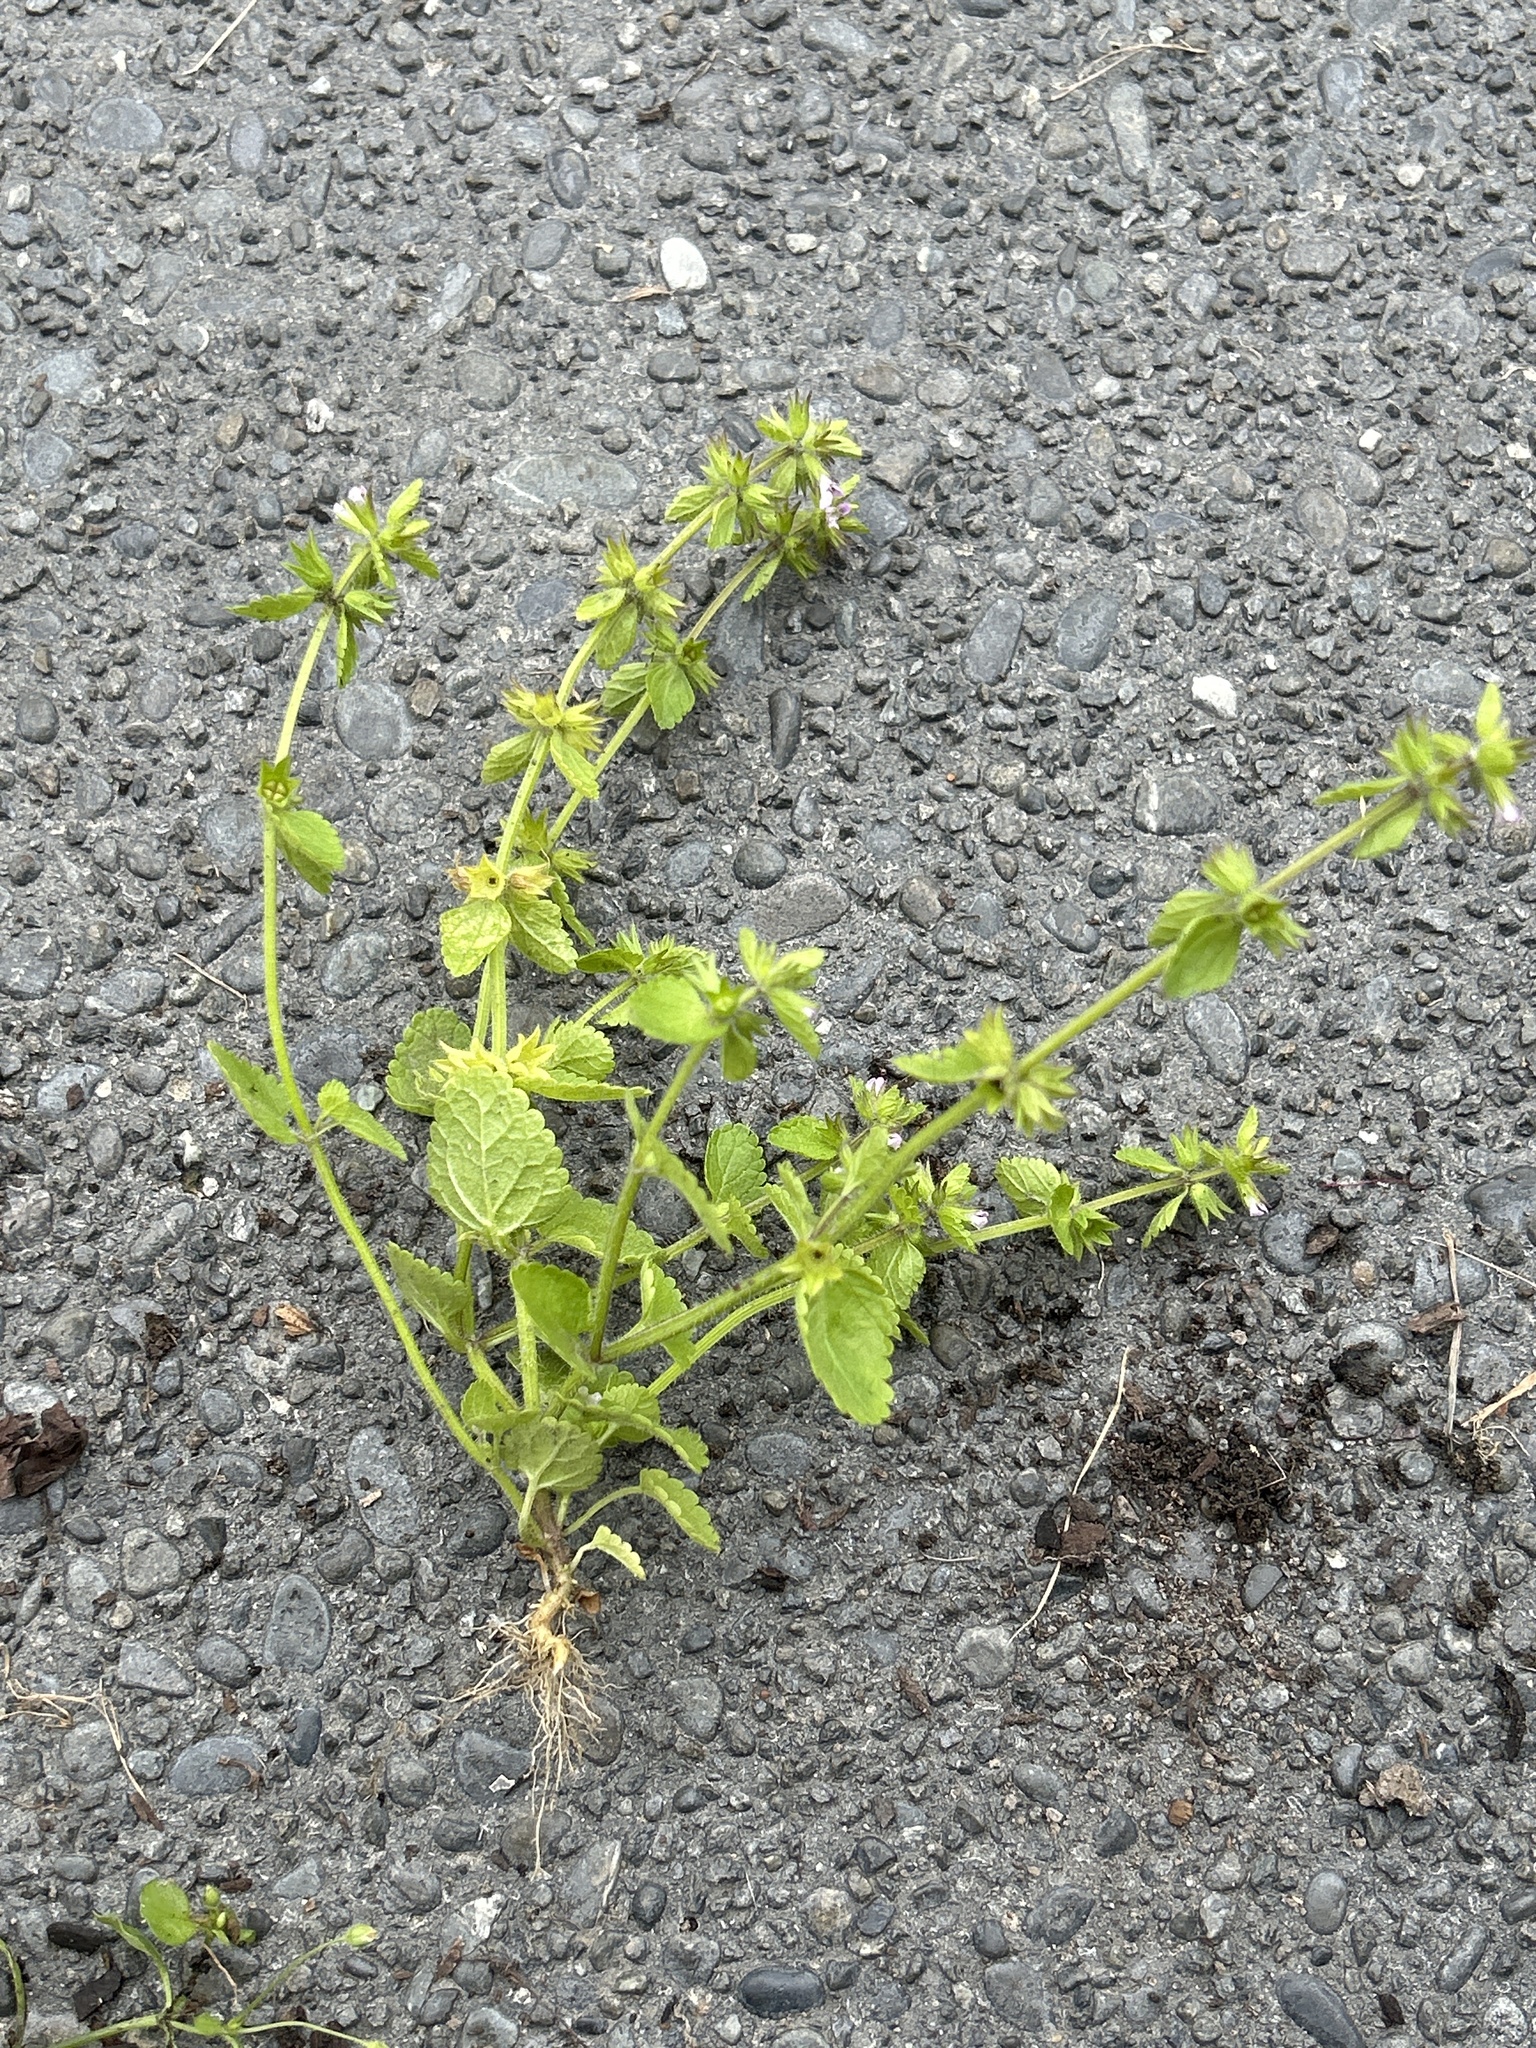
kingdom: Plantae
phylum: Tracheophyta
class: Magnoliopsida
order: Lamiales
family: Lamiaceae
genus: Stachys
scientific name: Stachys arvensis
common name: Field woundwort
